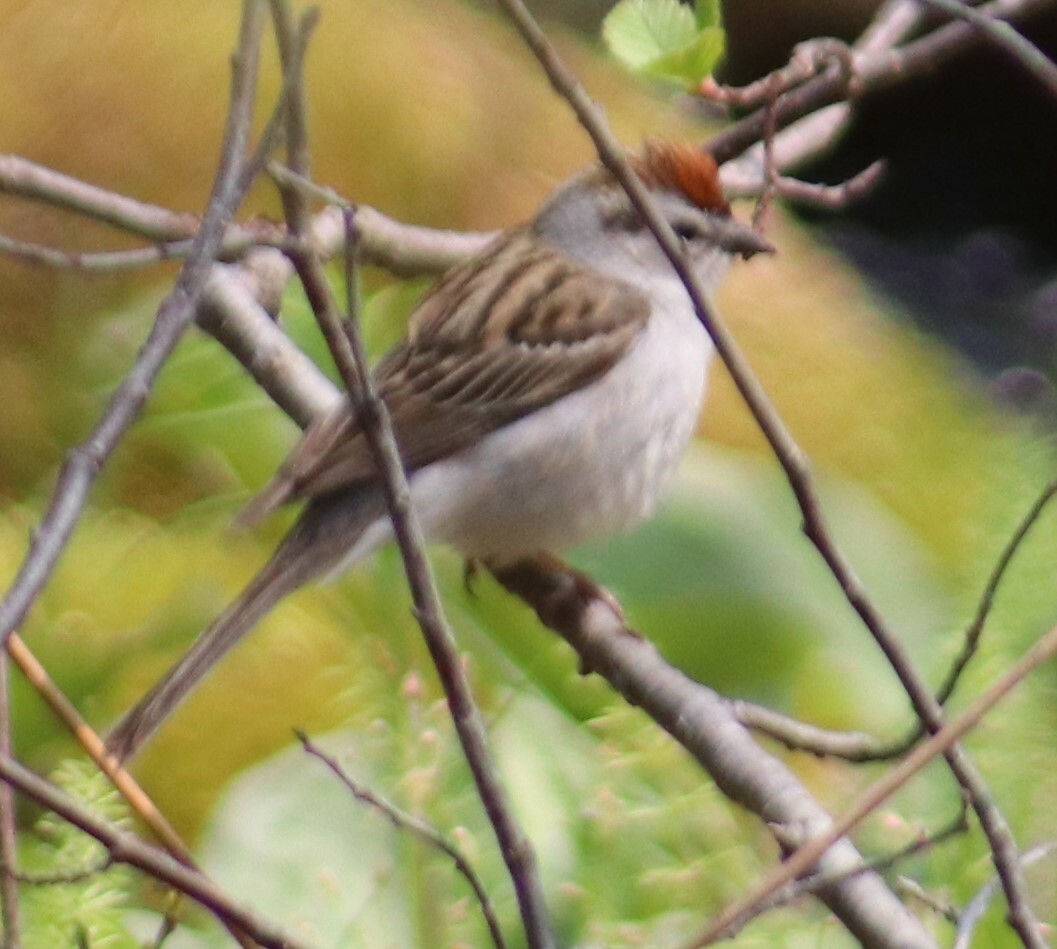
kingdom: Animalia
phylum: Chordata
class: Aves
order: Passeriformes
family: Passerellidae
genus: Spizella
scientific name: Spizella passerina
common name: Chipping sparrow
